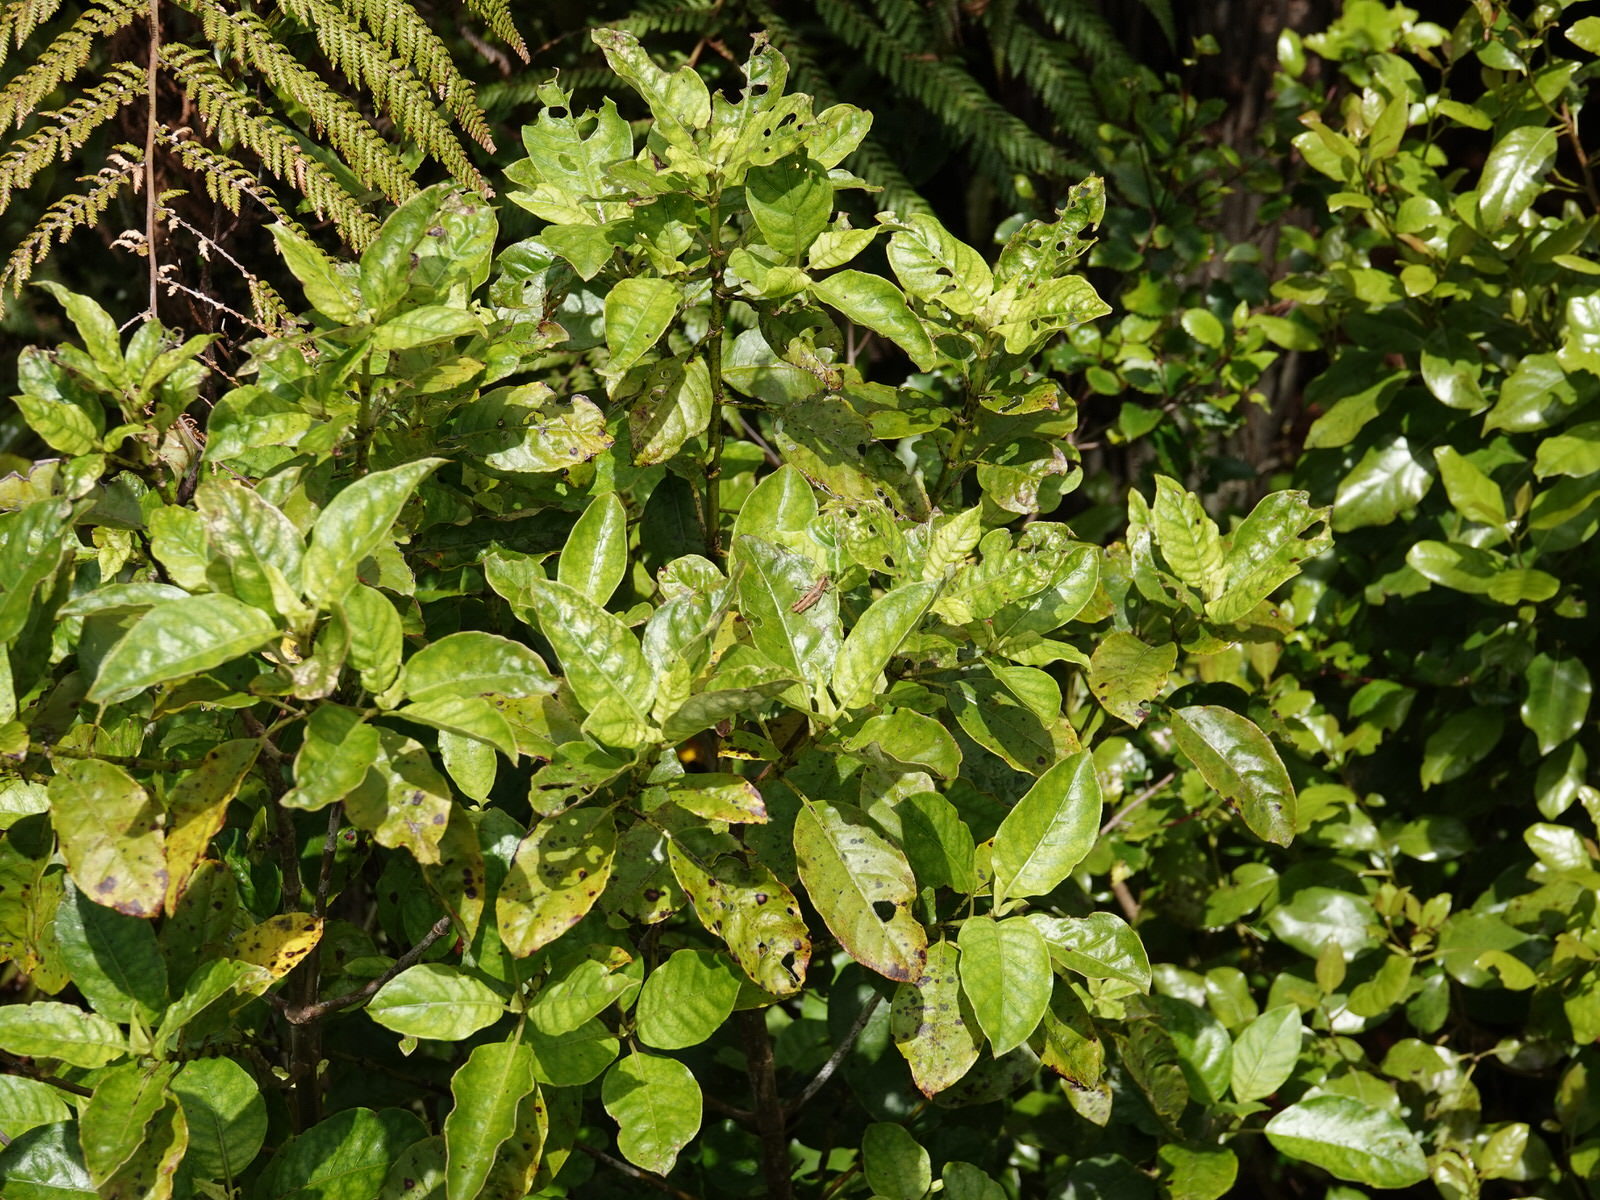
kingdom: Animalia
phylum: Arthropoda
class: Insecta
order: Orthoptera
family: Acrididae
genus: Sigaus
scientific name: Sigaus piliferus
